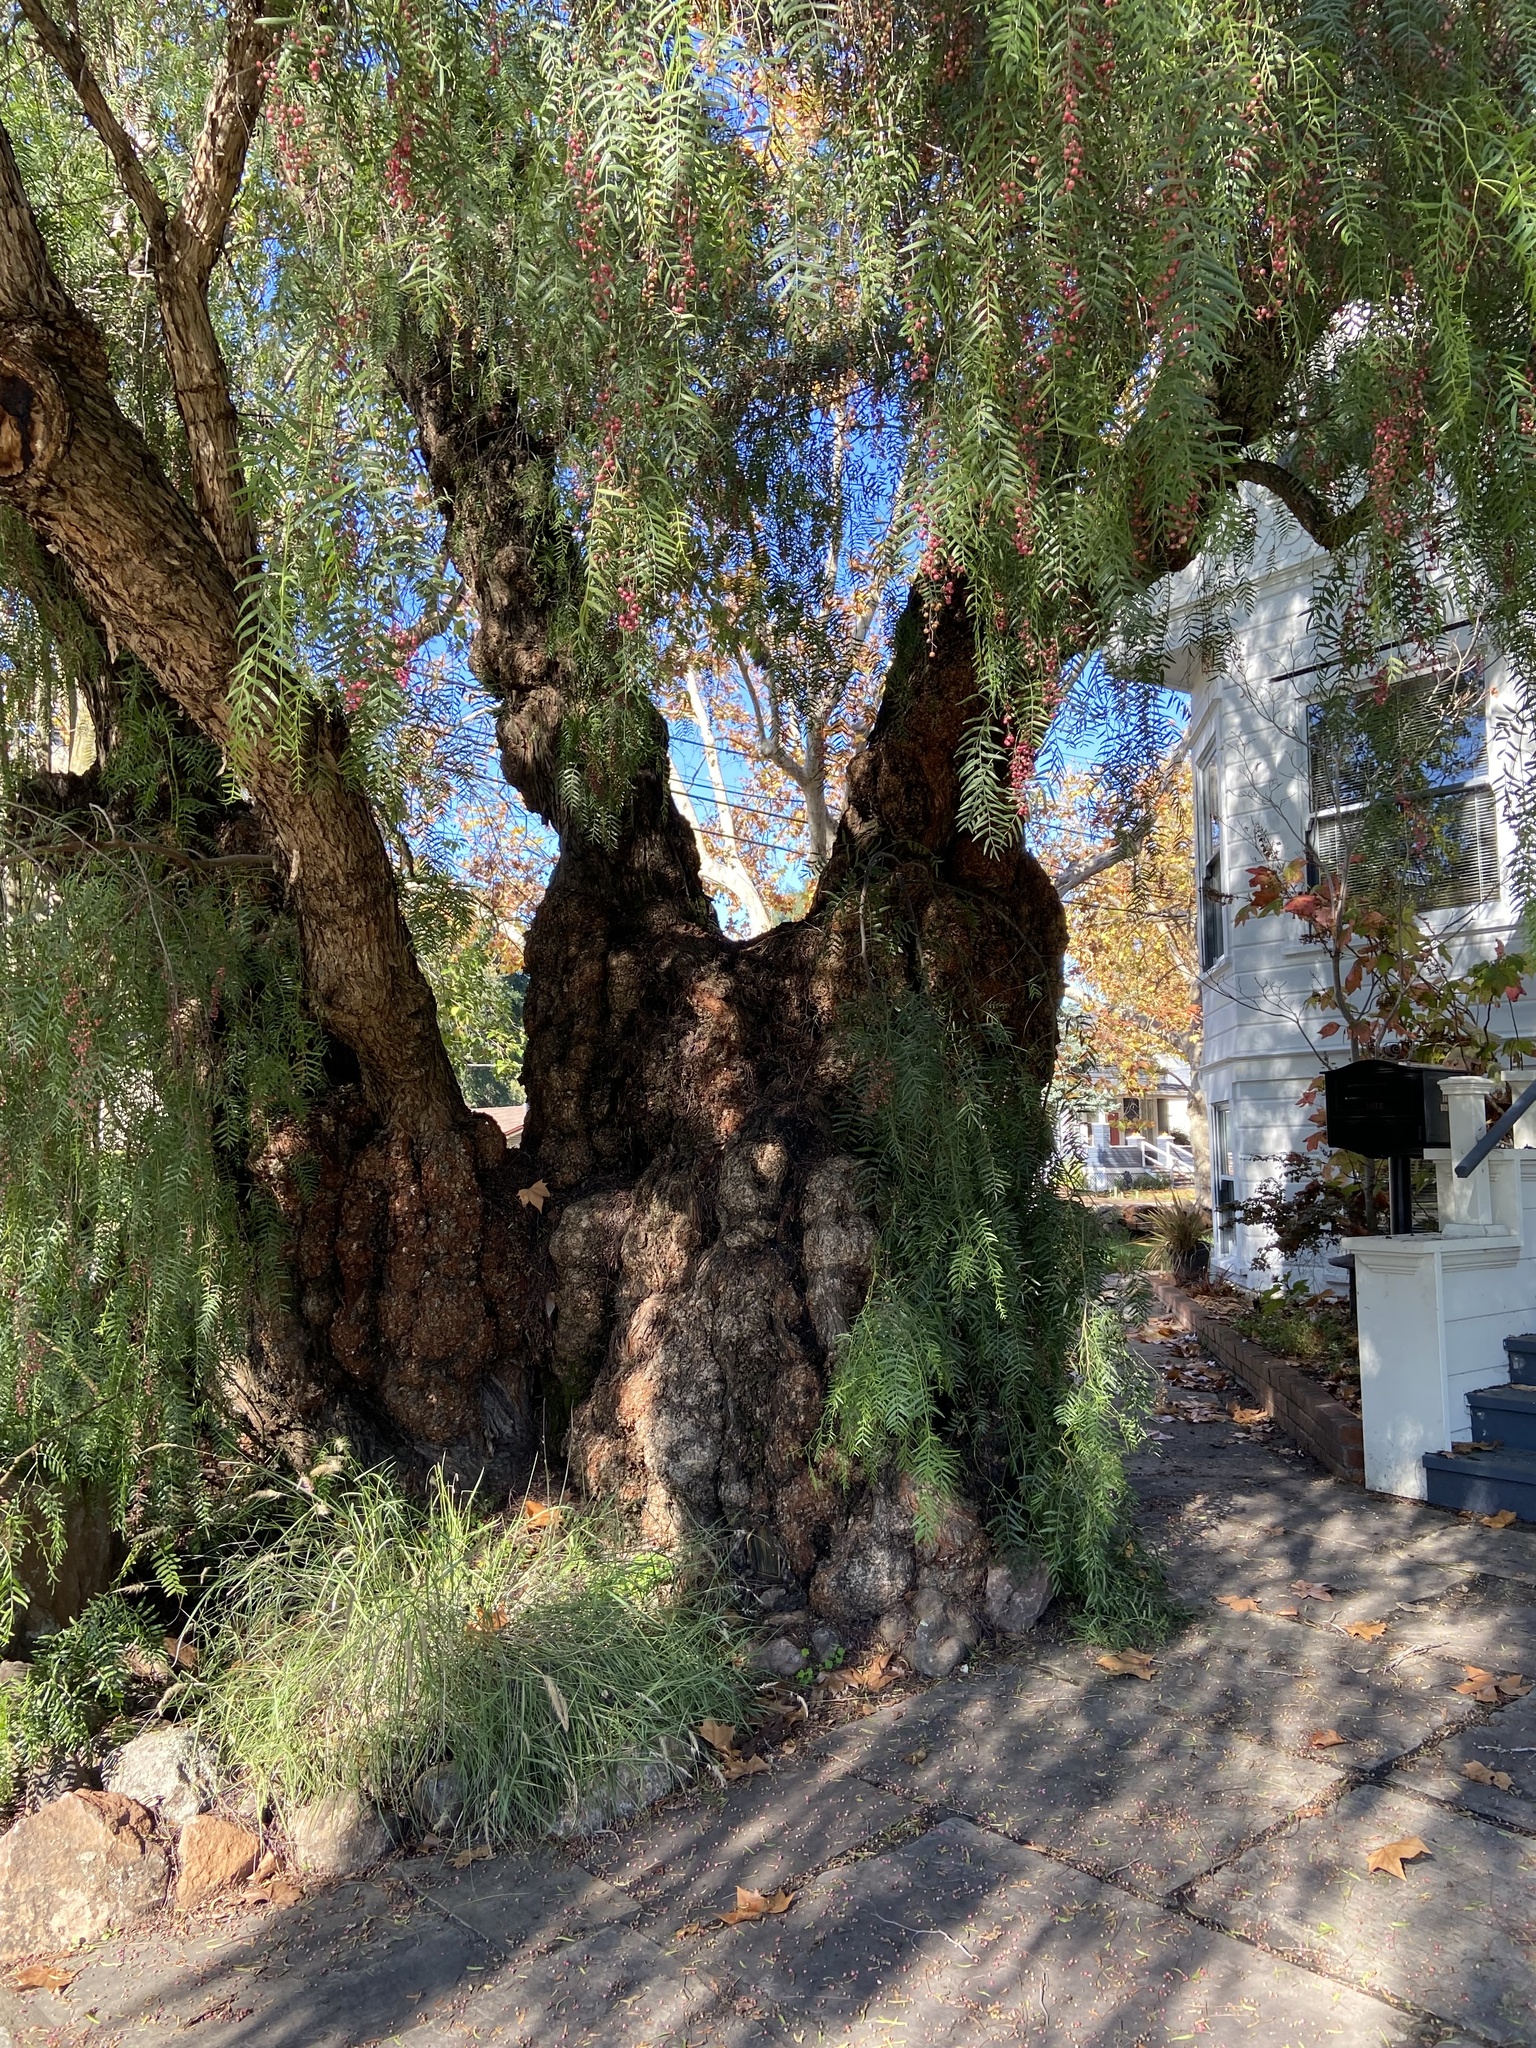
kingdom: Plantae
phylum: Tracheophyta
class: Magnoliopsida
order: Sapindales
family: Anacardiaceae
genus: Schinus
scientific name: Schinus molle
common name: Peruvian peppertree
